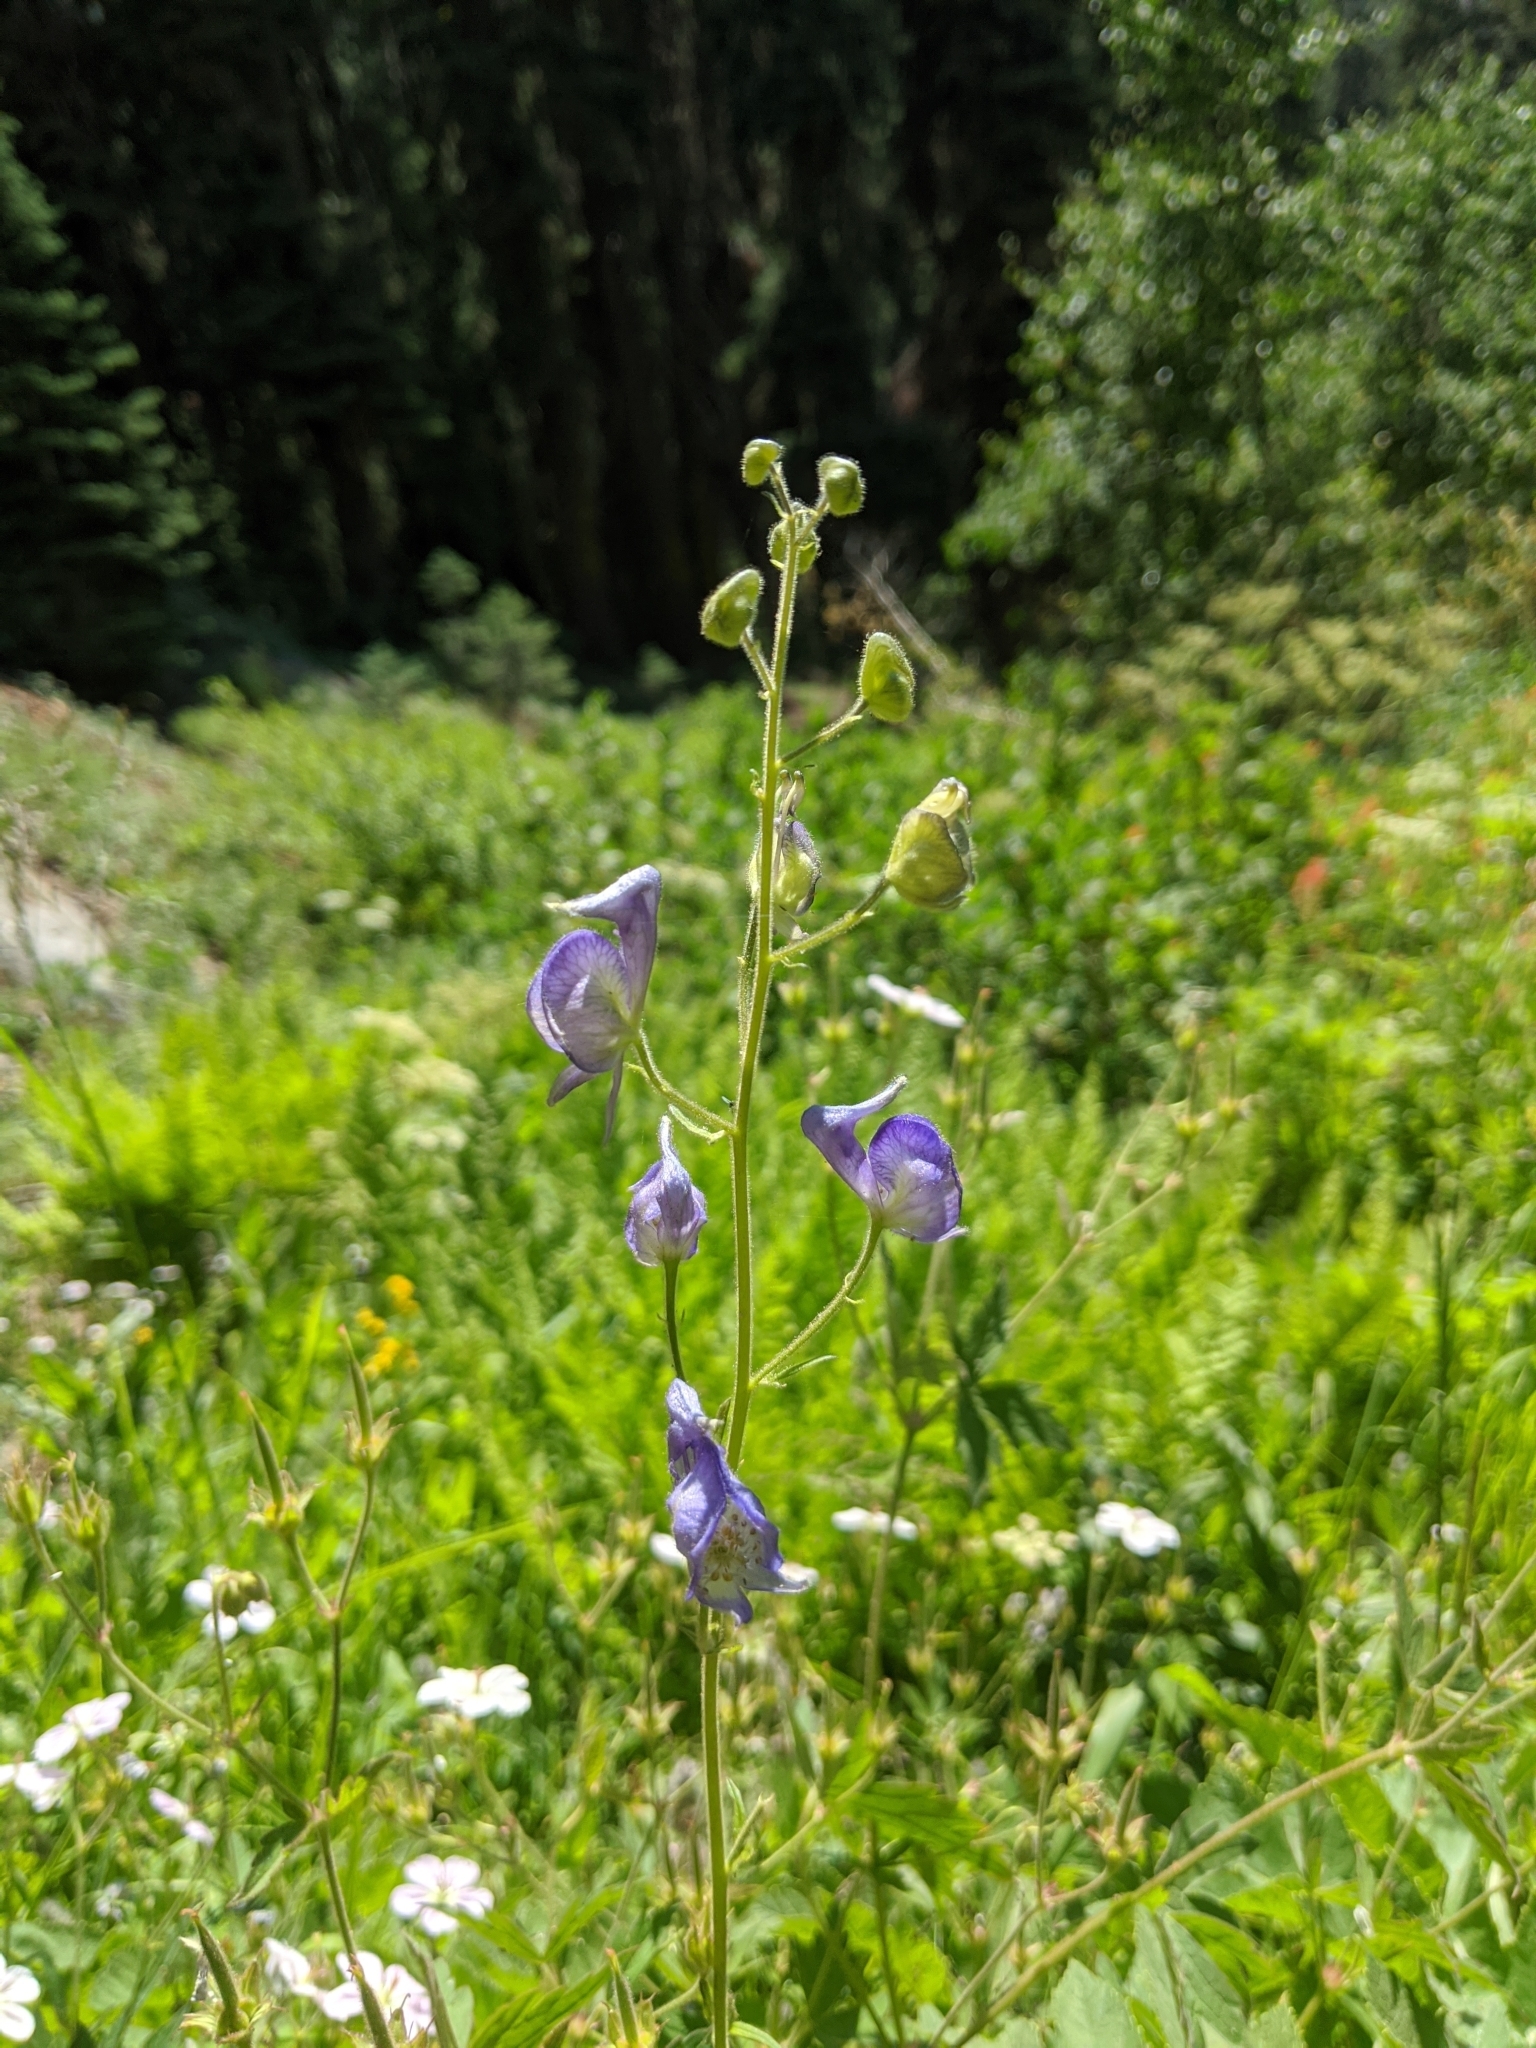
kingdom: Plantae
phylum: Tracheophyta
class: Magnoliopsida
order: Ranunculales
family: Ranunculaceae
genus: Aconitum
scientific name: Aconitum columbianum
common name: Columbia aconite
